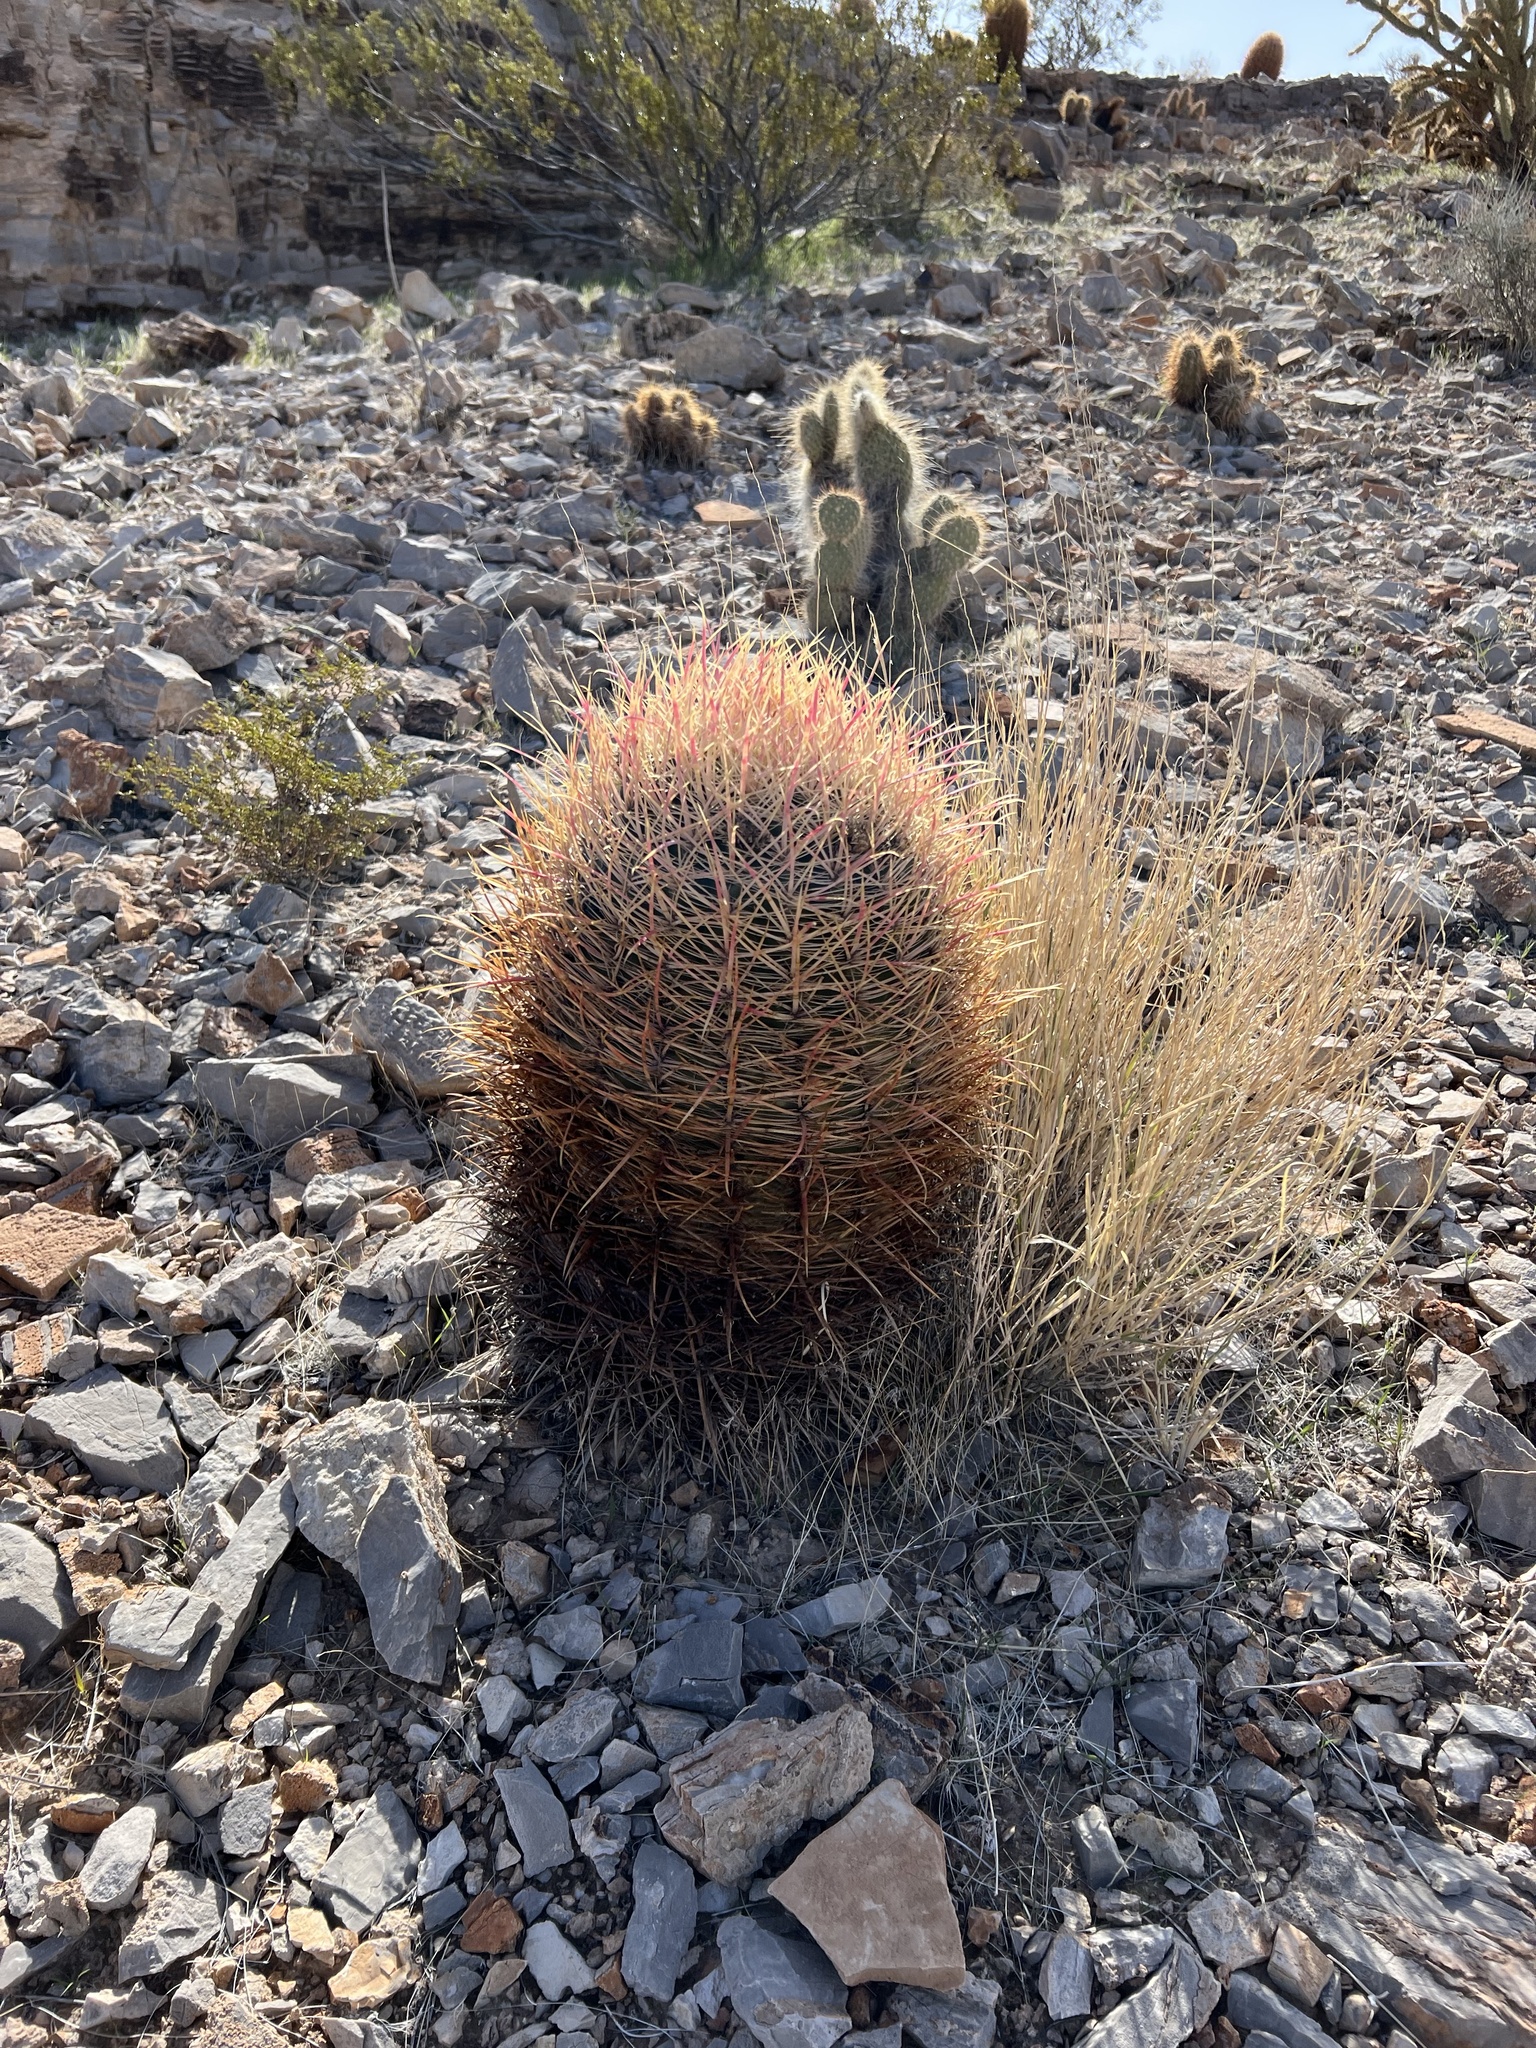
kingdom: Plantae
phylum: Tracheophyta
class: Magnoliopsida
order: Caryophyllales
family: Cactaceae
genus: Ferocactus
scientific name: Ferocactus cylindraceus
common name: California barrel cactus
